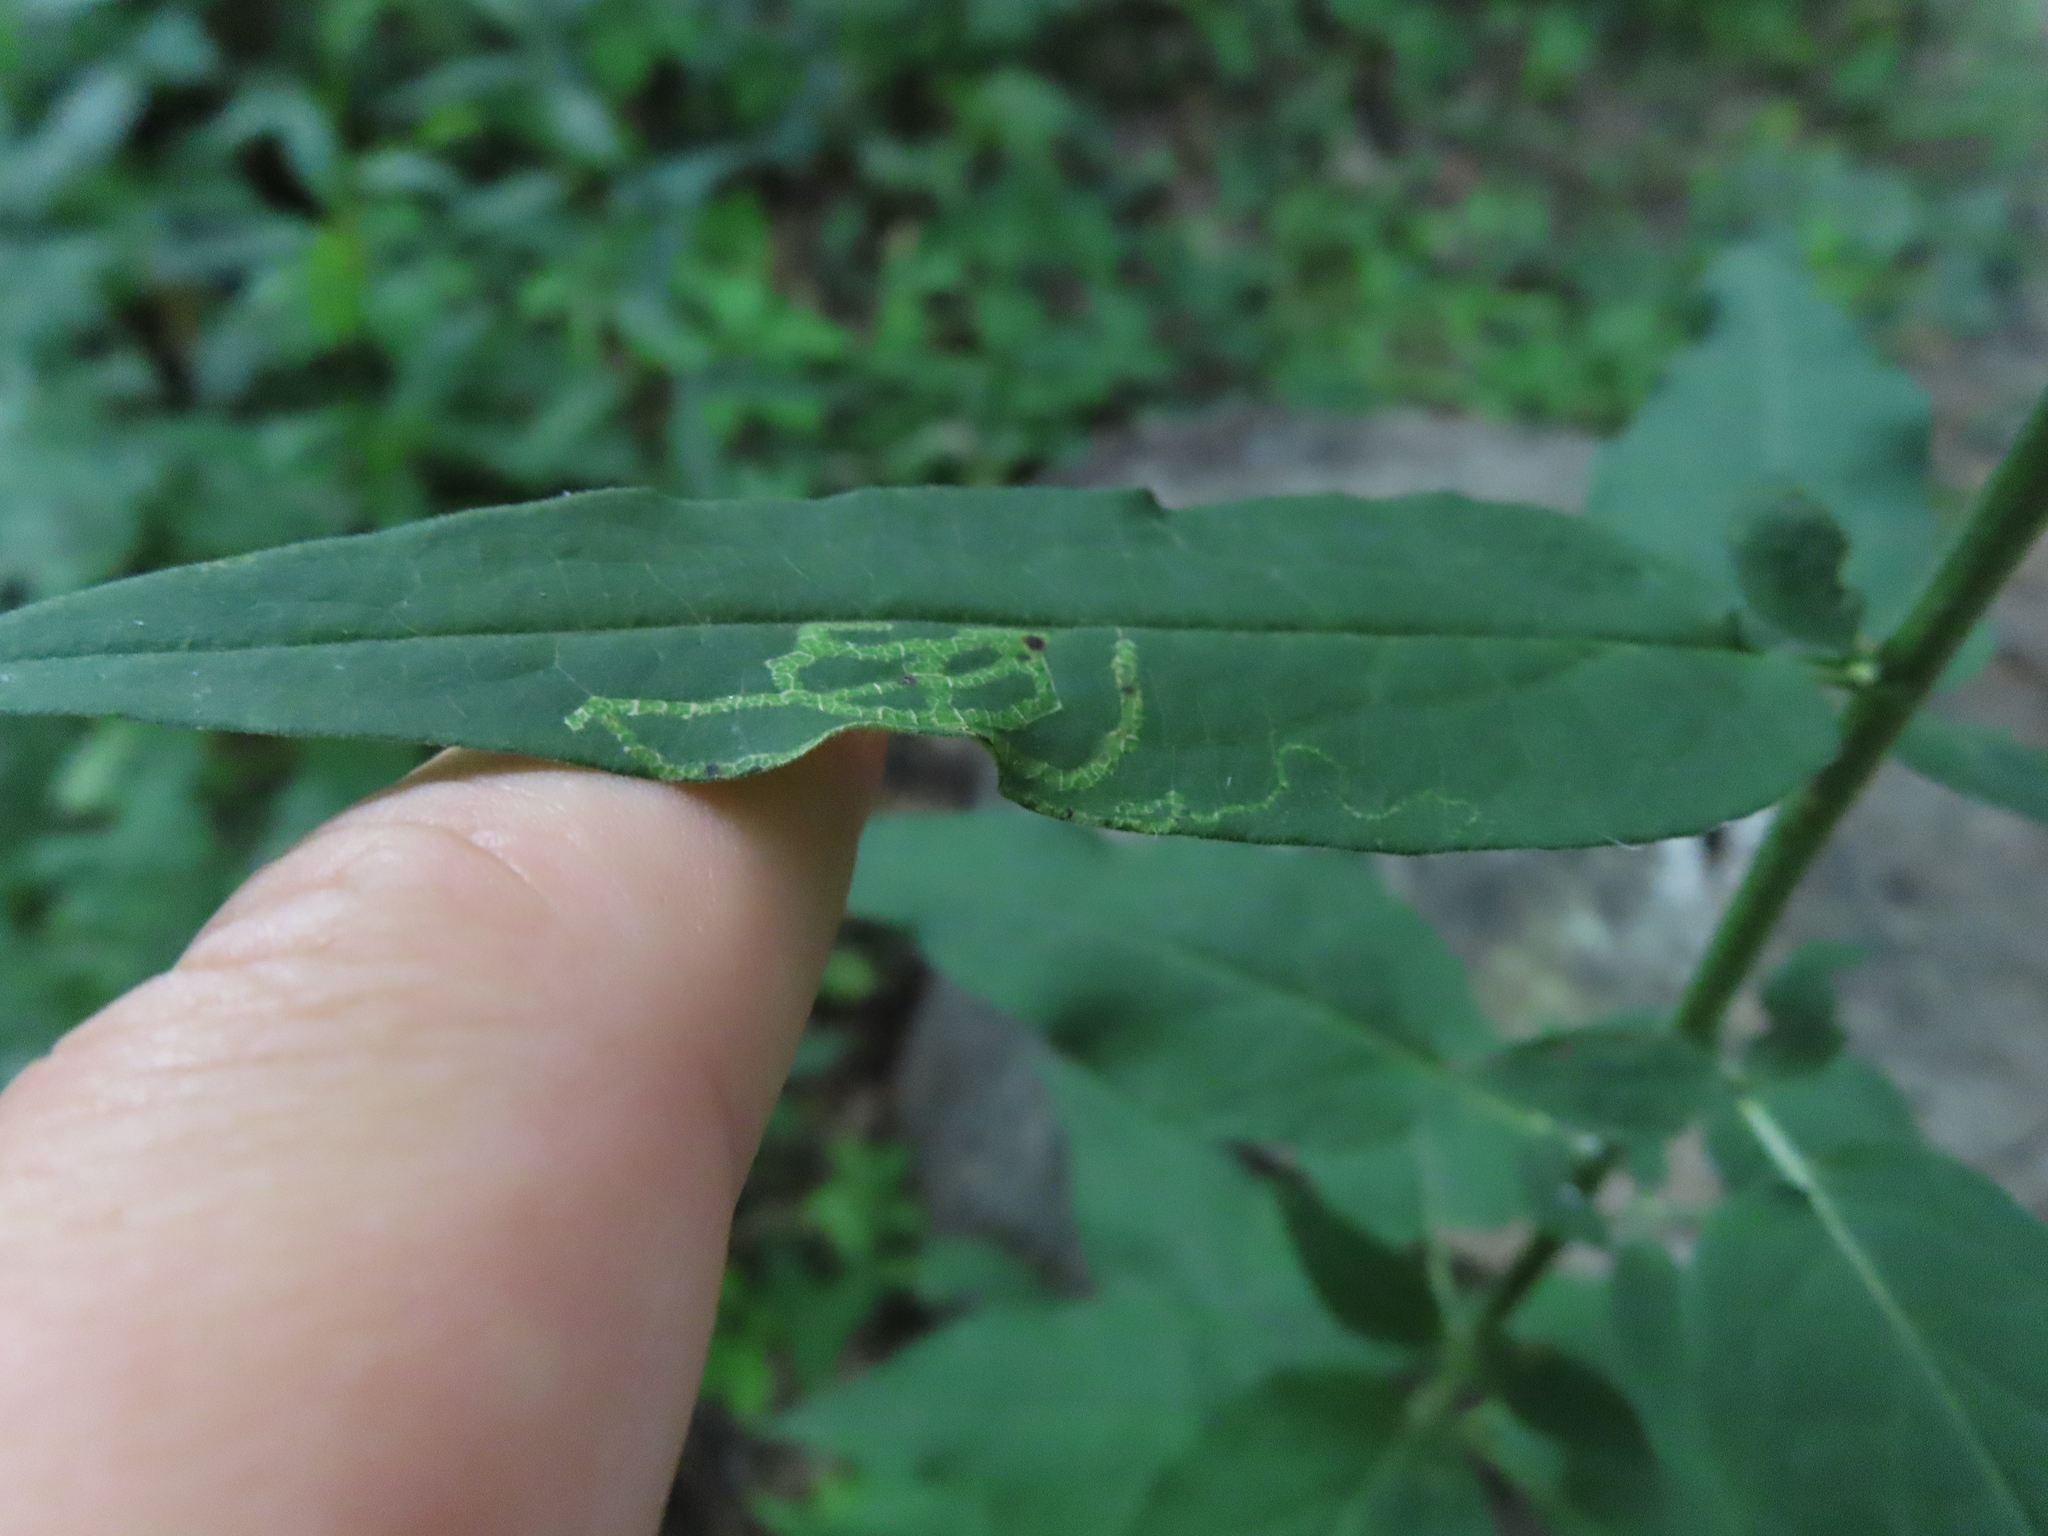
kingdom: Animalia
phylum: Arthropoda
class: Insecta
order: Diptera
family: Agromyzidae
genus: Ophiomyia
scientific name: Ophiomyia parda
